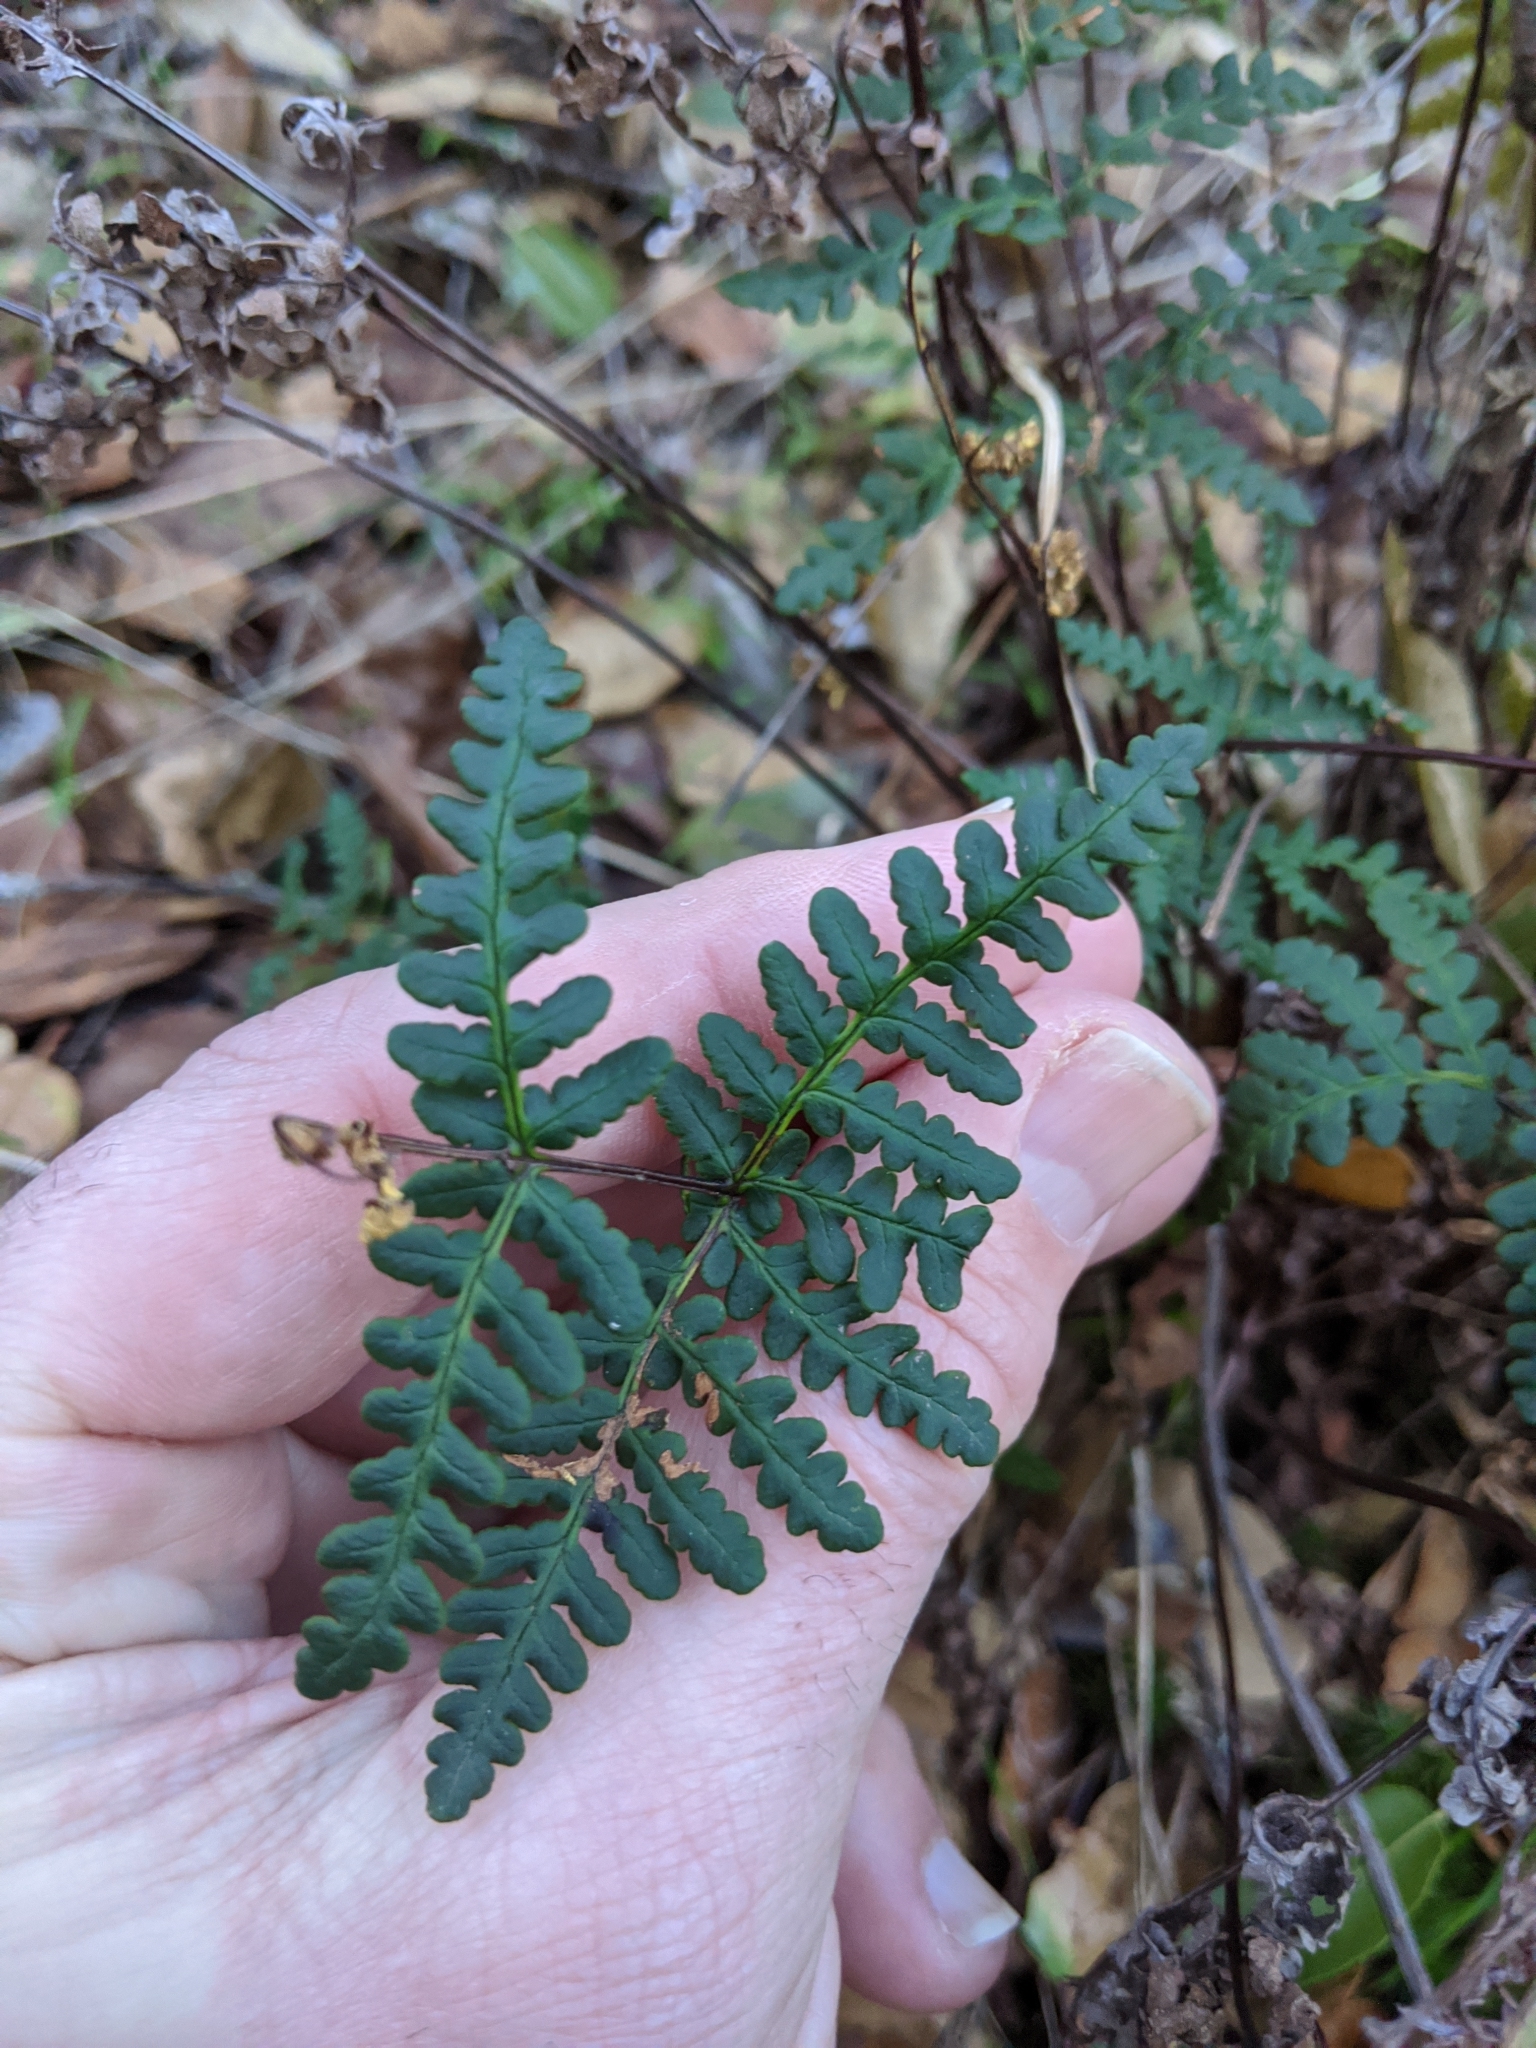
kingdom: Plantae
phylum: Tracheophyta
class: Polypodiopsida
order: Polypodiales
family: Pteridaceae
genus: Pentagramma
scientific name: Pentagramma triangularis
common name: Gold fern
